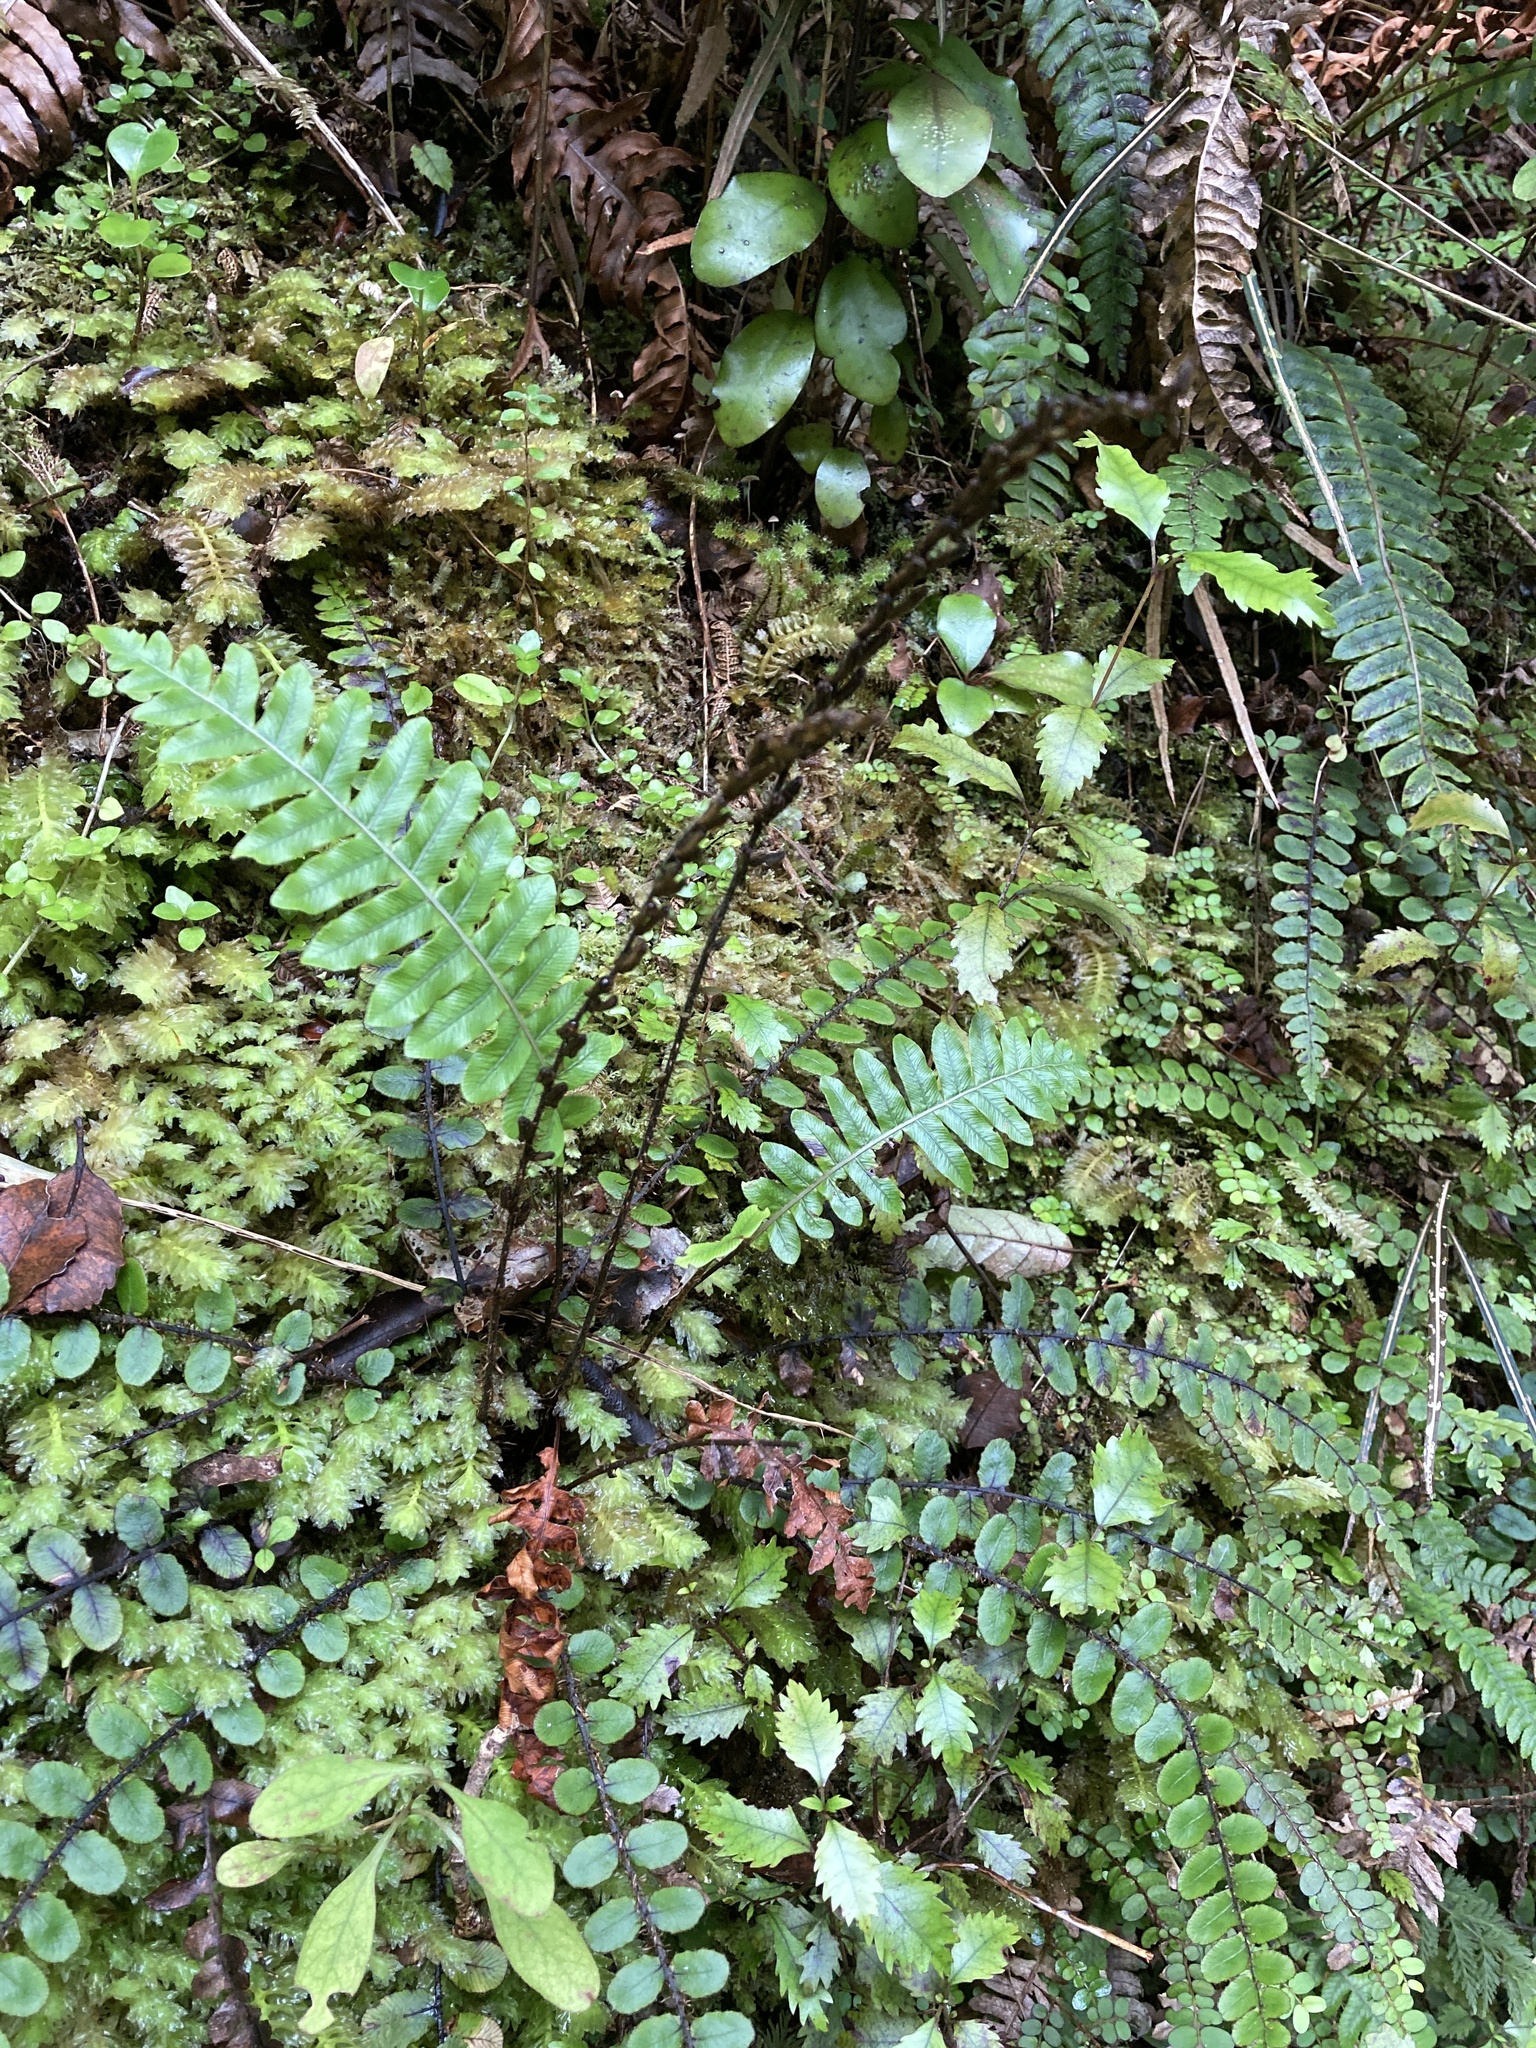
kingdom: Plantae
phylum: Tracheophyta
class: Polypodiopsida
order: Polypodiales
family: Blechnaceae
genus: Cranfillia
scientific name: Cranfillia fluviatilis
